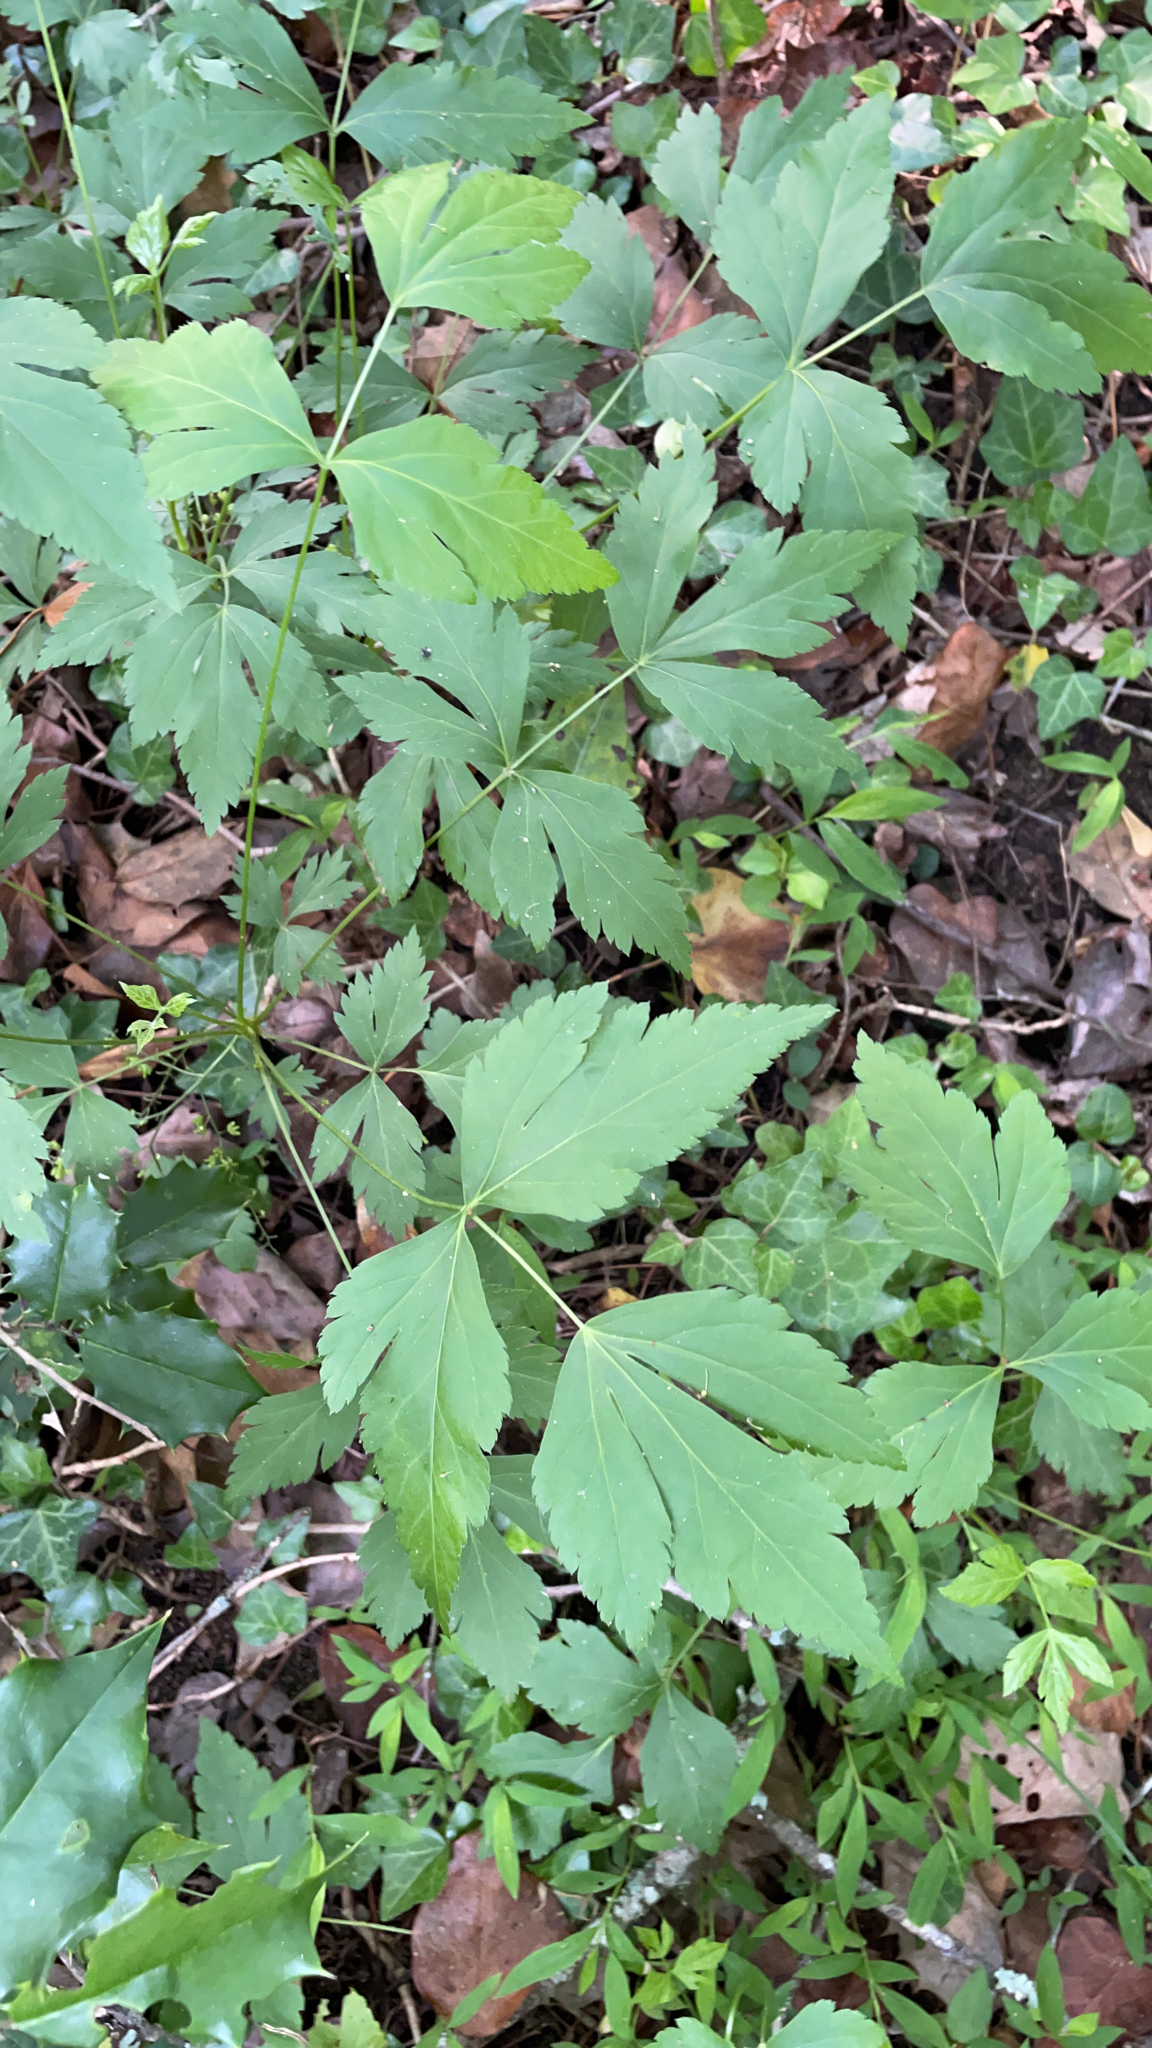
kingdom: Plantae
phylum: Tracheophyta
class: Magnoliopsida
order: Ranunculales
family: Ranunculaceae
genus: Xanthorhiza
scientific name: Xanthorhiza simplicissima
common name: Yellowroot
